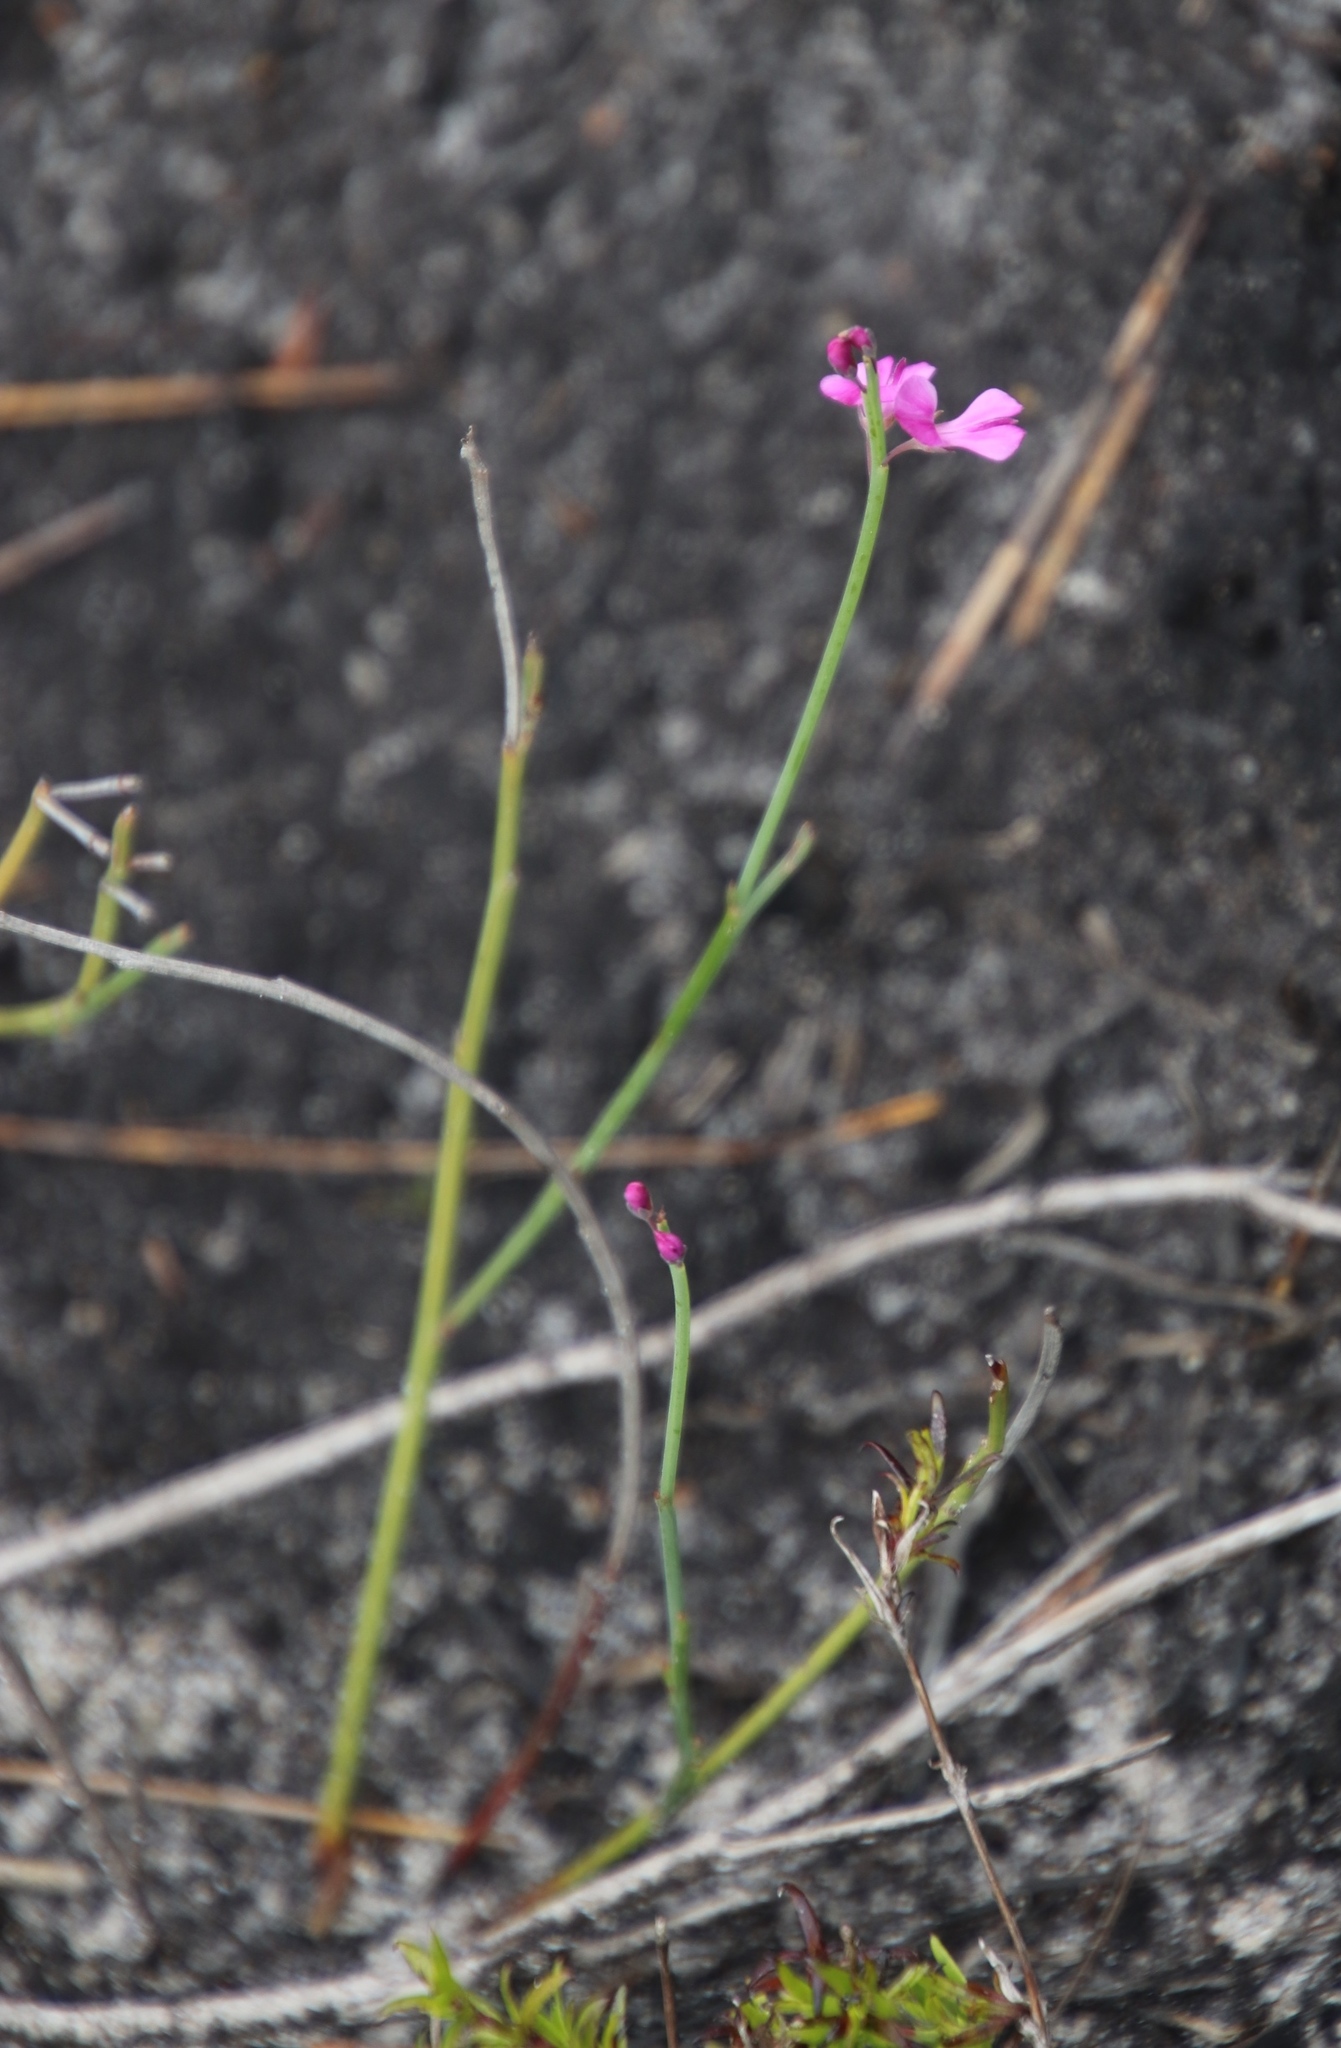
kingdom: Plantae
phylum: Tracheophyta
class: Magnoliopsida
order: Fabales
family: Fabaceae
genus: Indigofera
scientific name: Indigofera ionii
